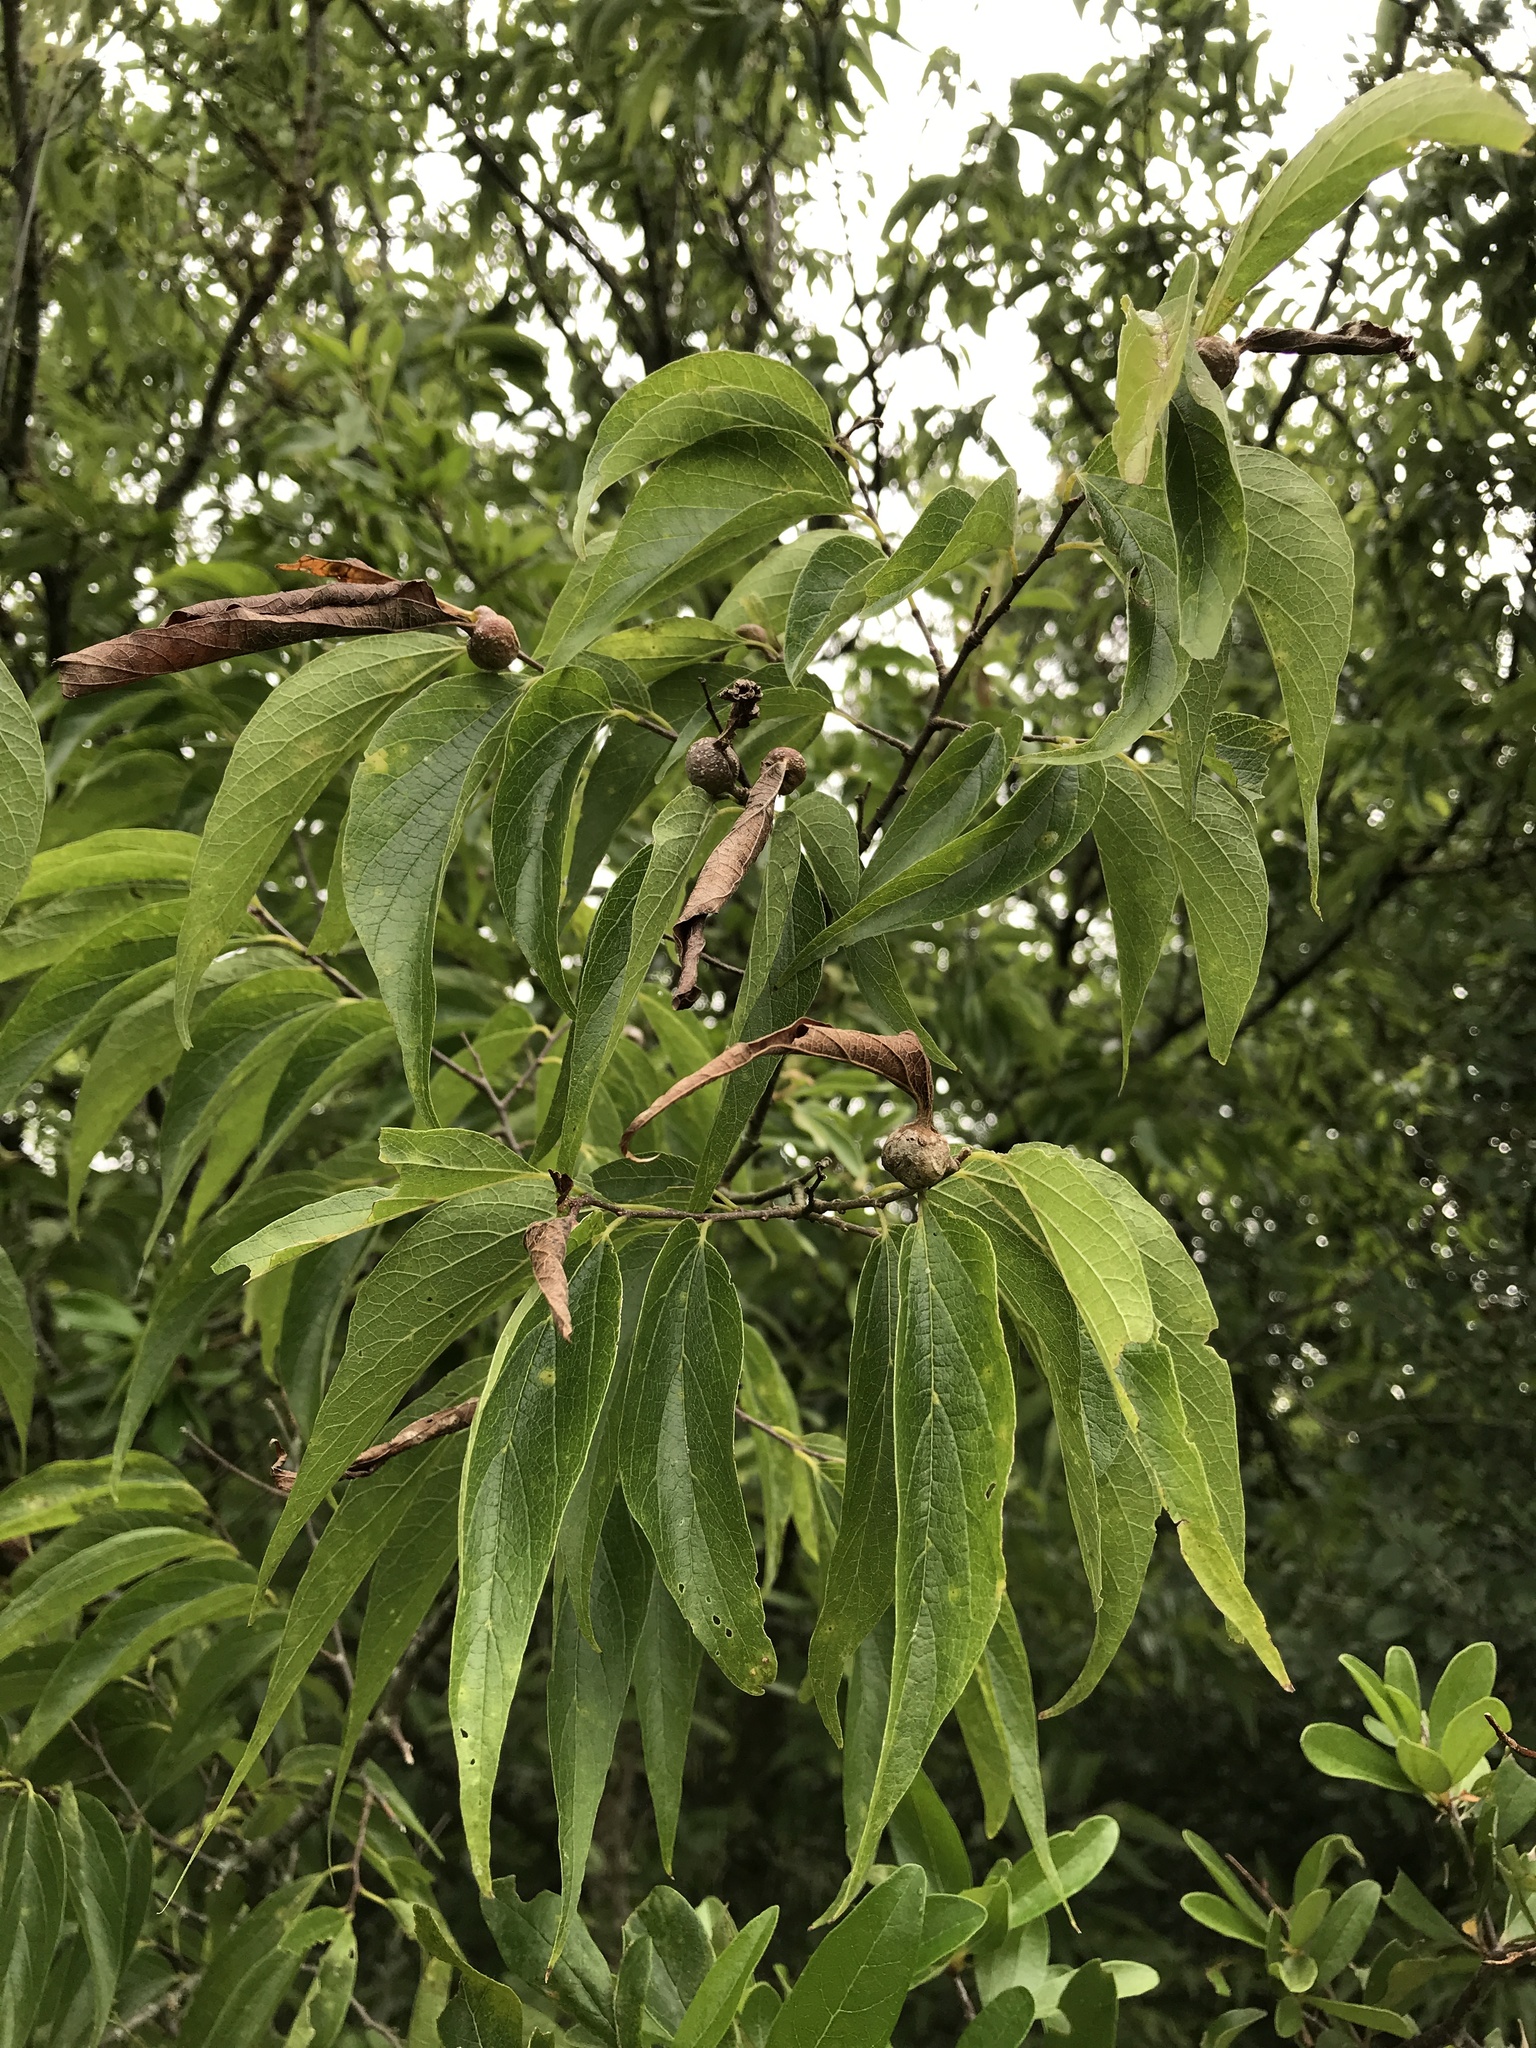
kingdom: Plantae
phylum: Tracheophyta
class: Magnoliopsida
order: Rosales
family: Cannabaceae
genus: Celtis
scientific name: Celtis laevigata
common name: Sugarberry
